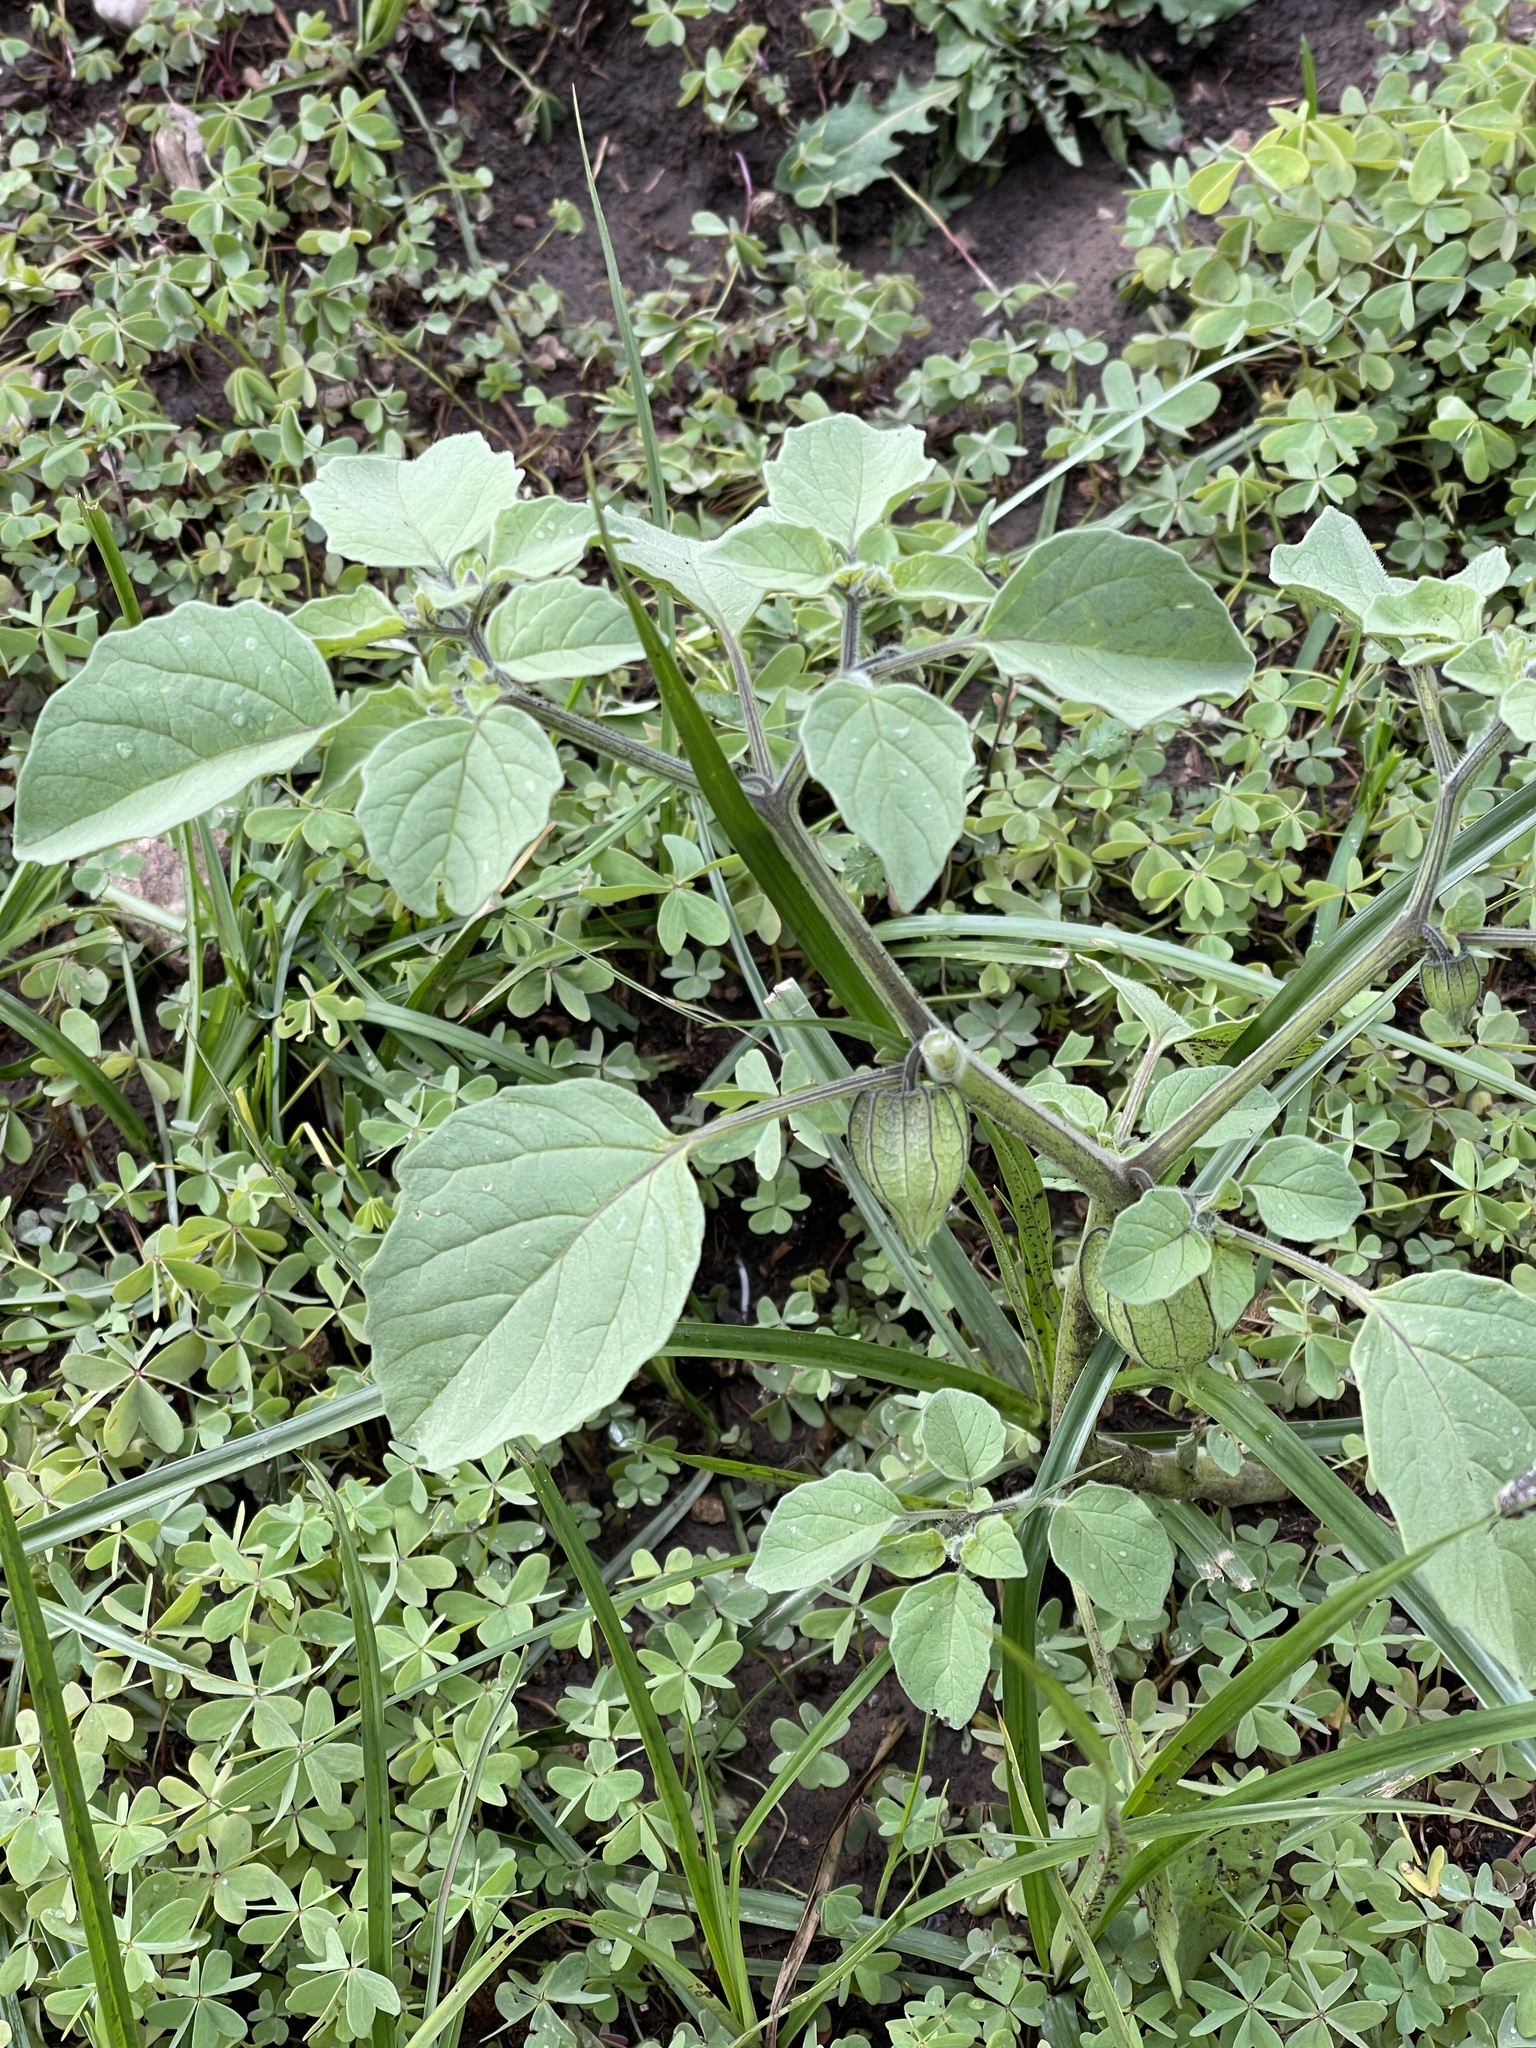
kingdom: Plantae
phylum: Tracheophyta
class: Magnoliopsida
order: Solanales
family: Solanaceae
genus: Physalis
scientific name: Physalis neomexicana
